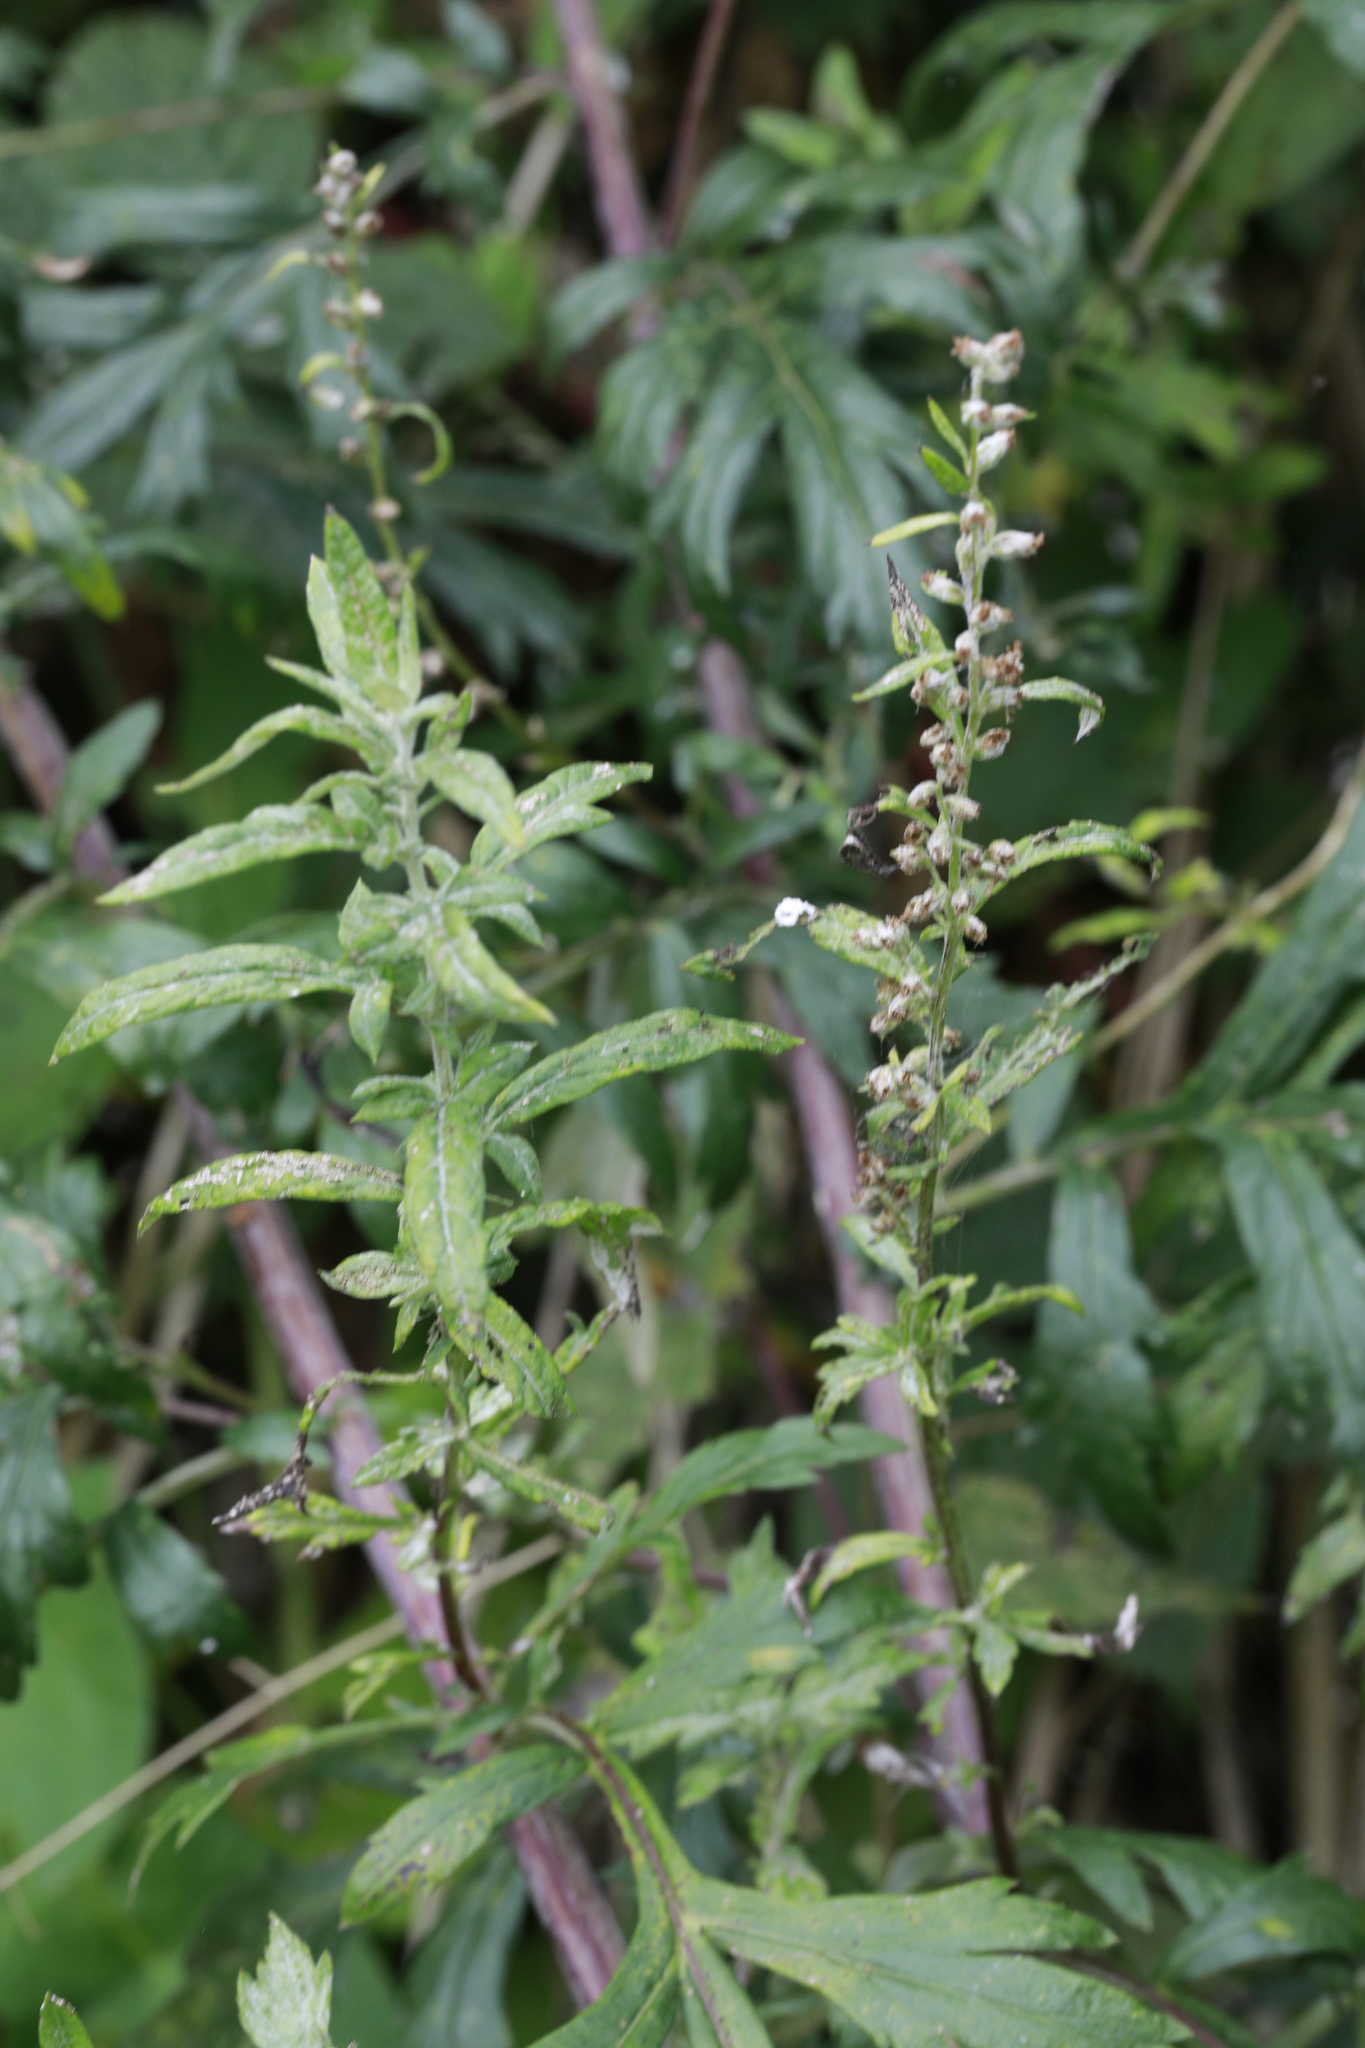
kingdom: Plantae
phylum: Tracheophyta
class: Magnoliopsida
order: Asterales
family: Asteraceae
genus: Artemisia
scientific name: Artemisia vulgaris
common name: Mugwort
